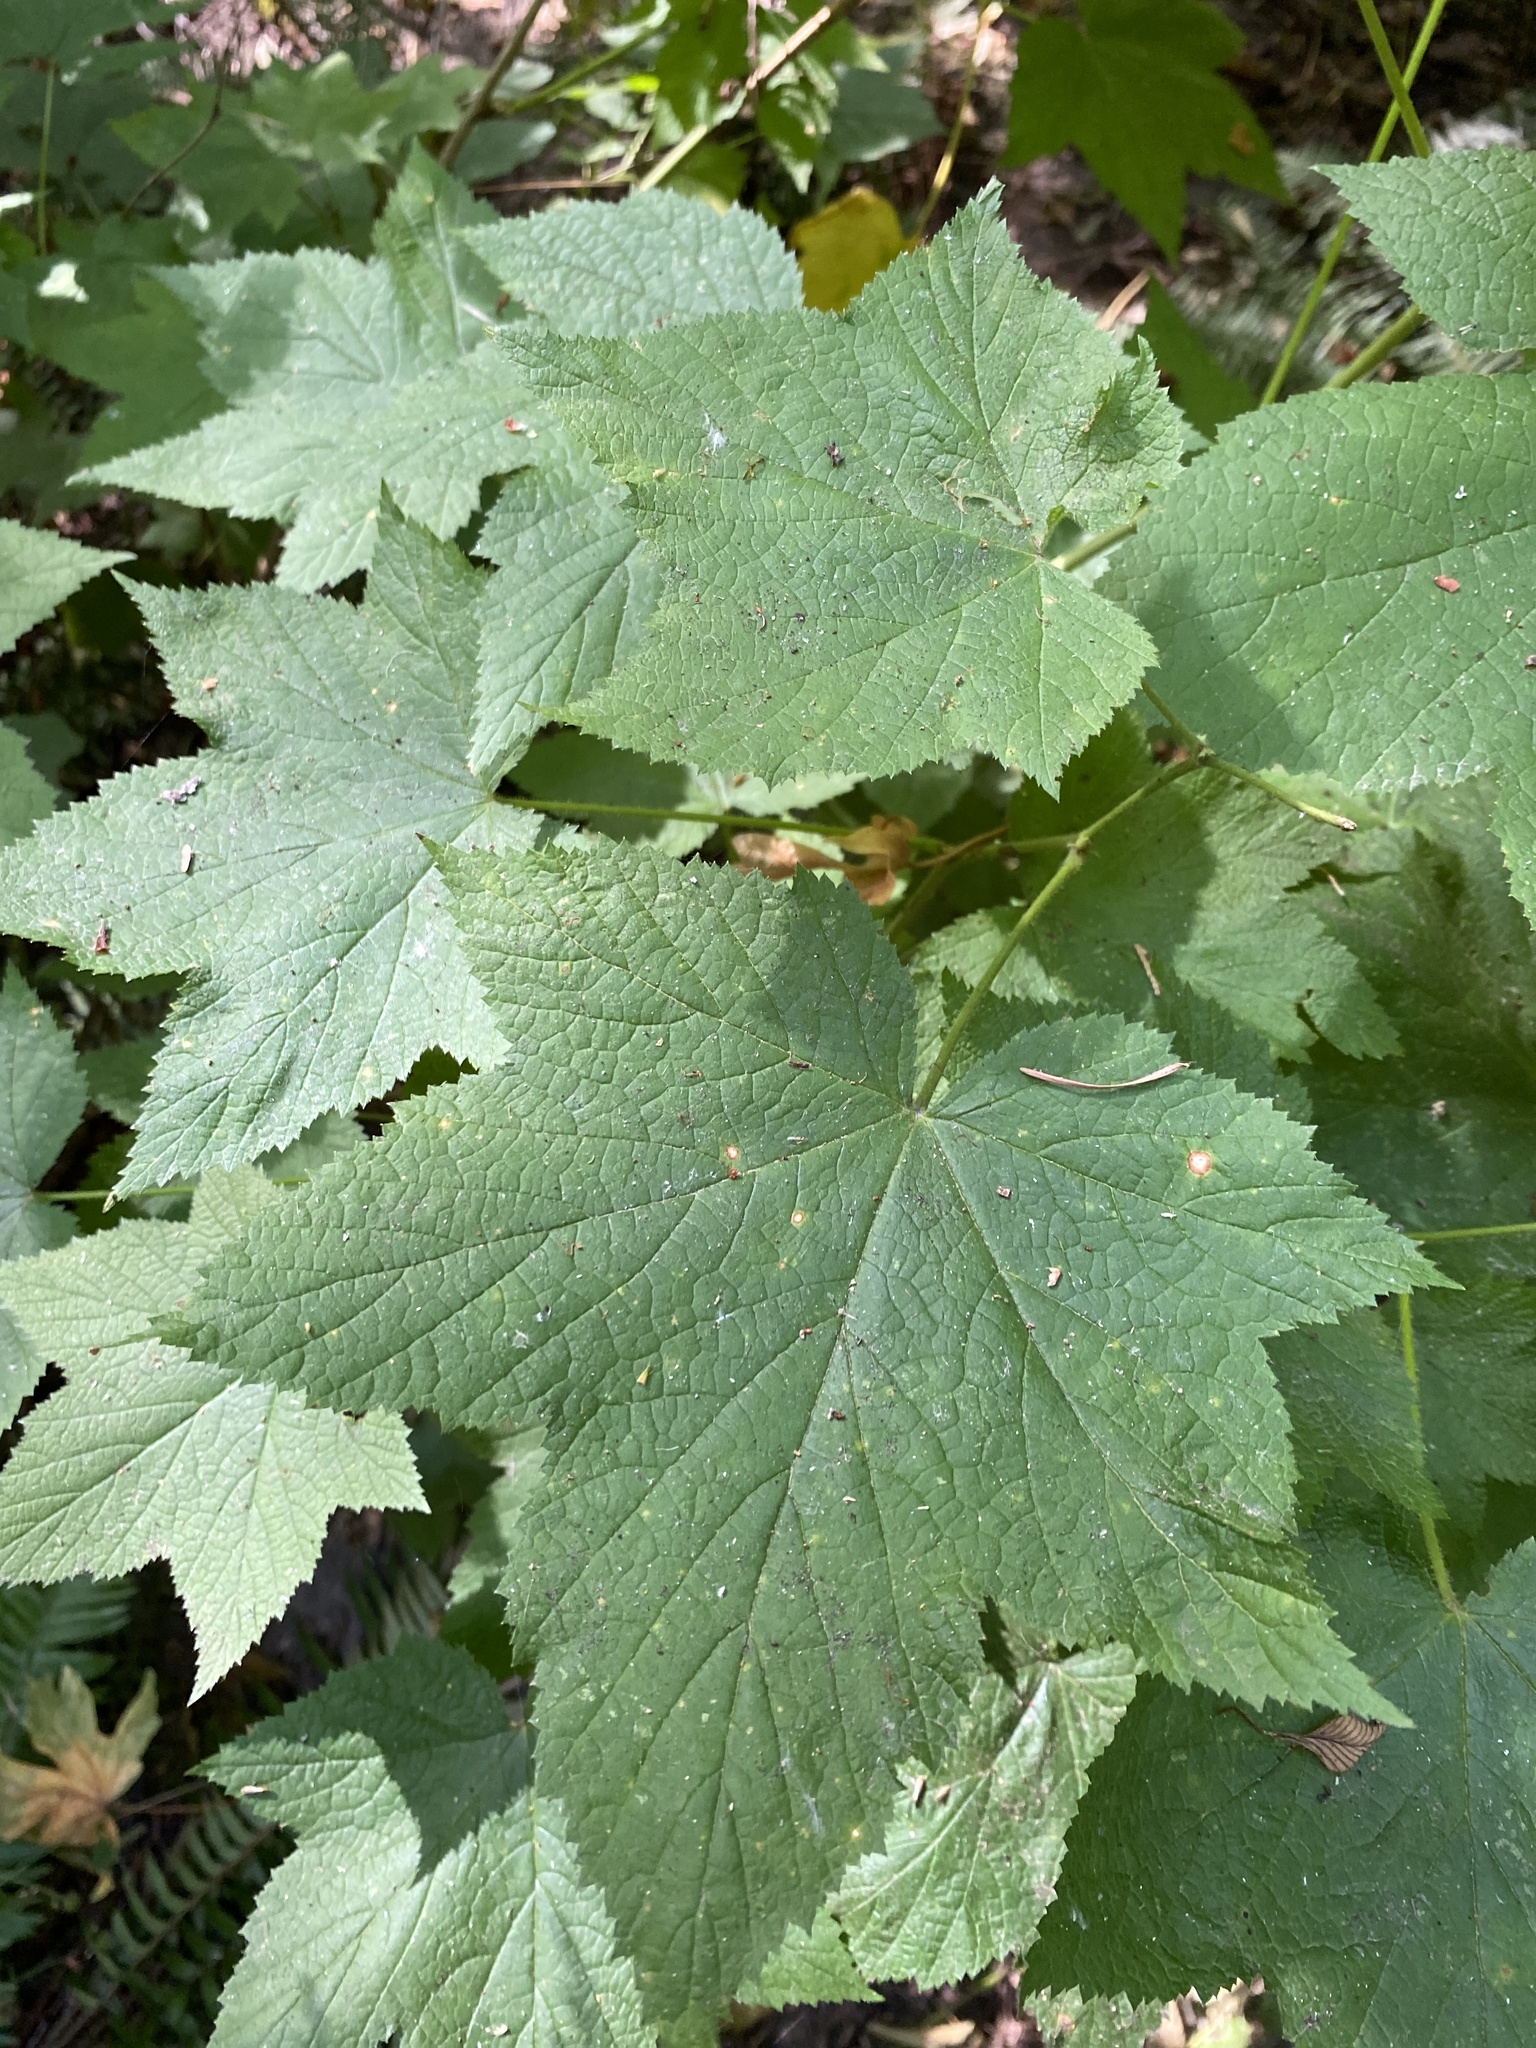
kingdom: Plantae
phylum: Tracheophyta
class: Magnoliopsida
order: Rosales
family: Rosaceae
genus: Rubus
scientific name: Rubus parviflorus
